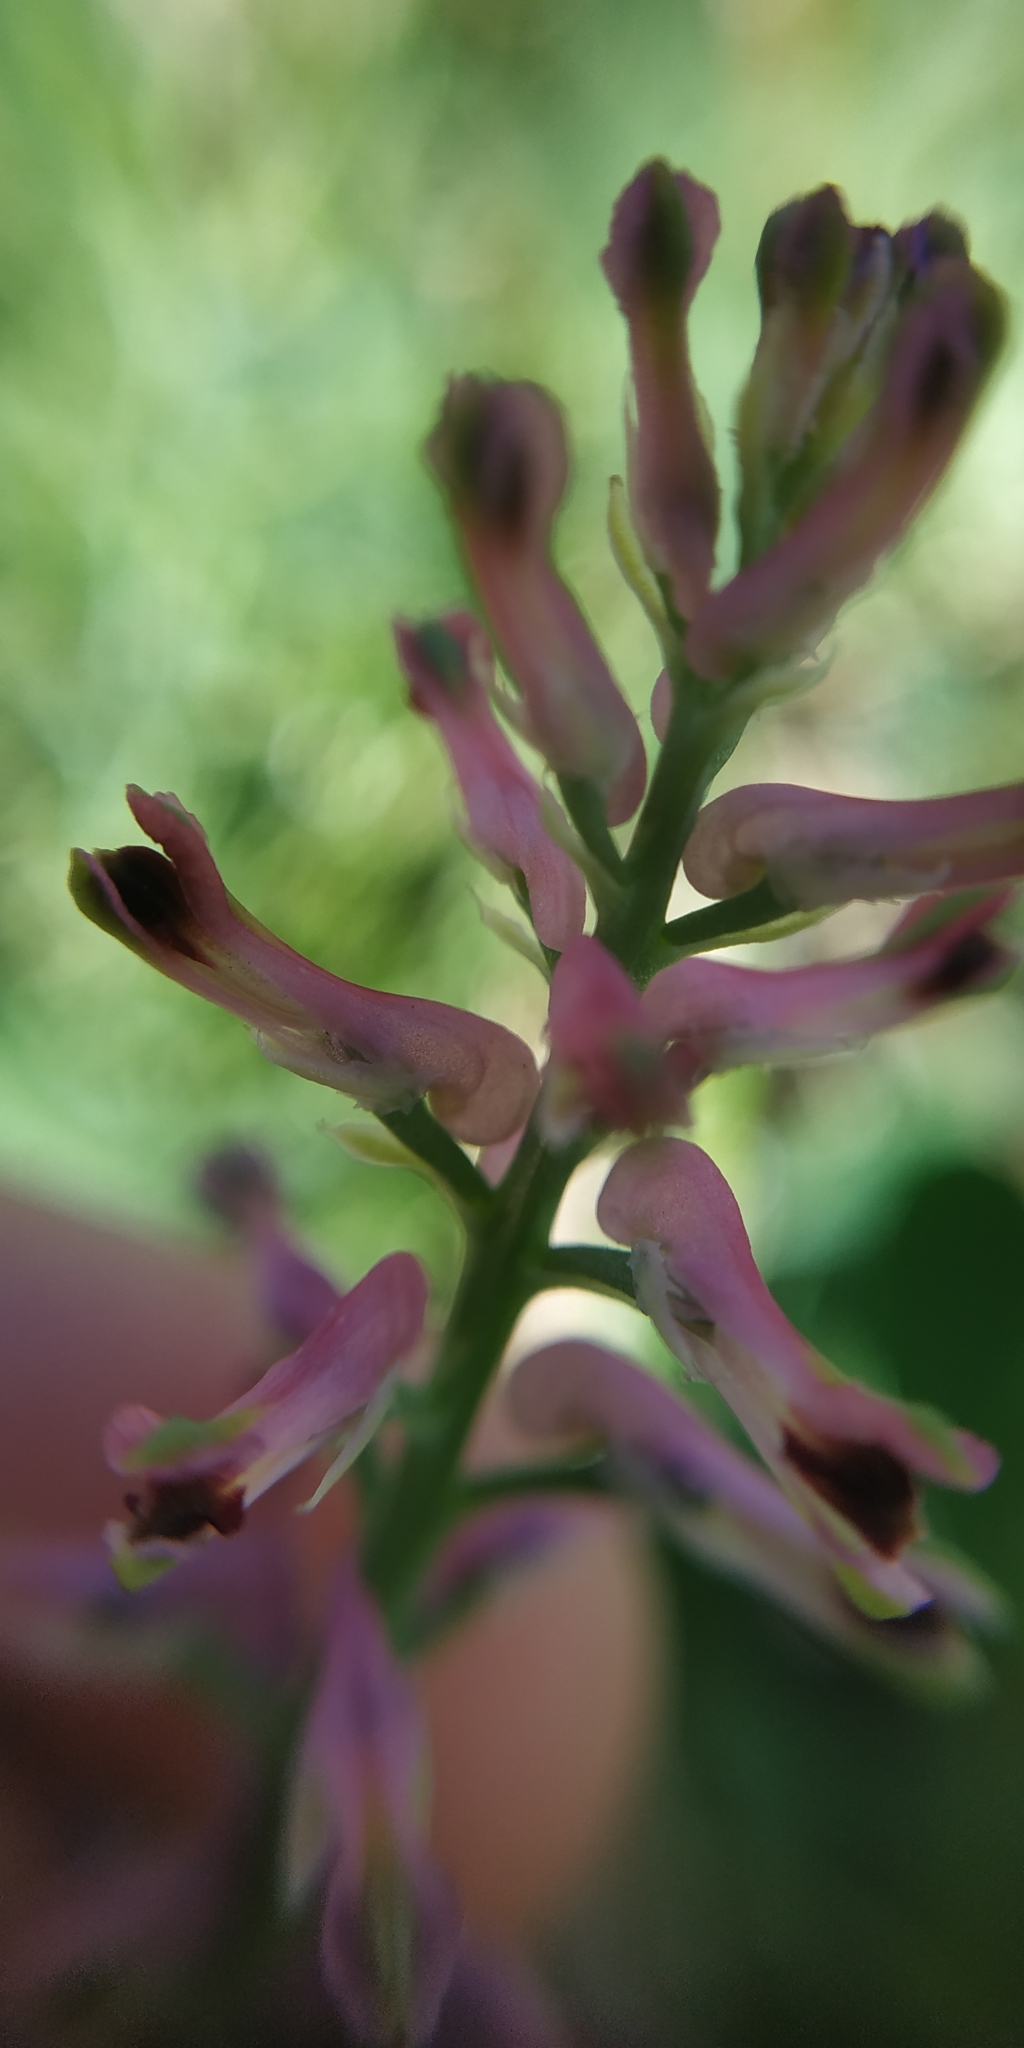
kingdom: Plantae
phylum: Tracheophyta
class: Magnoliopsida
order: Ranunculales
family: Papaveraceae
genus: Fumaria
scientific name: Fumaria officinalis
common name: Common fumitory
